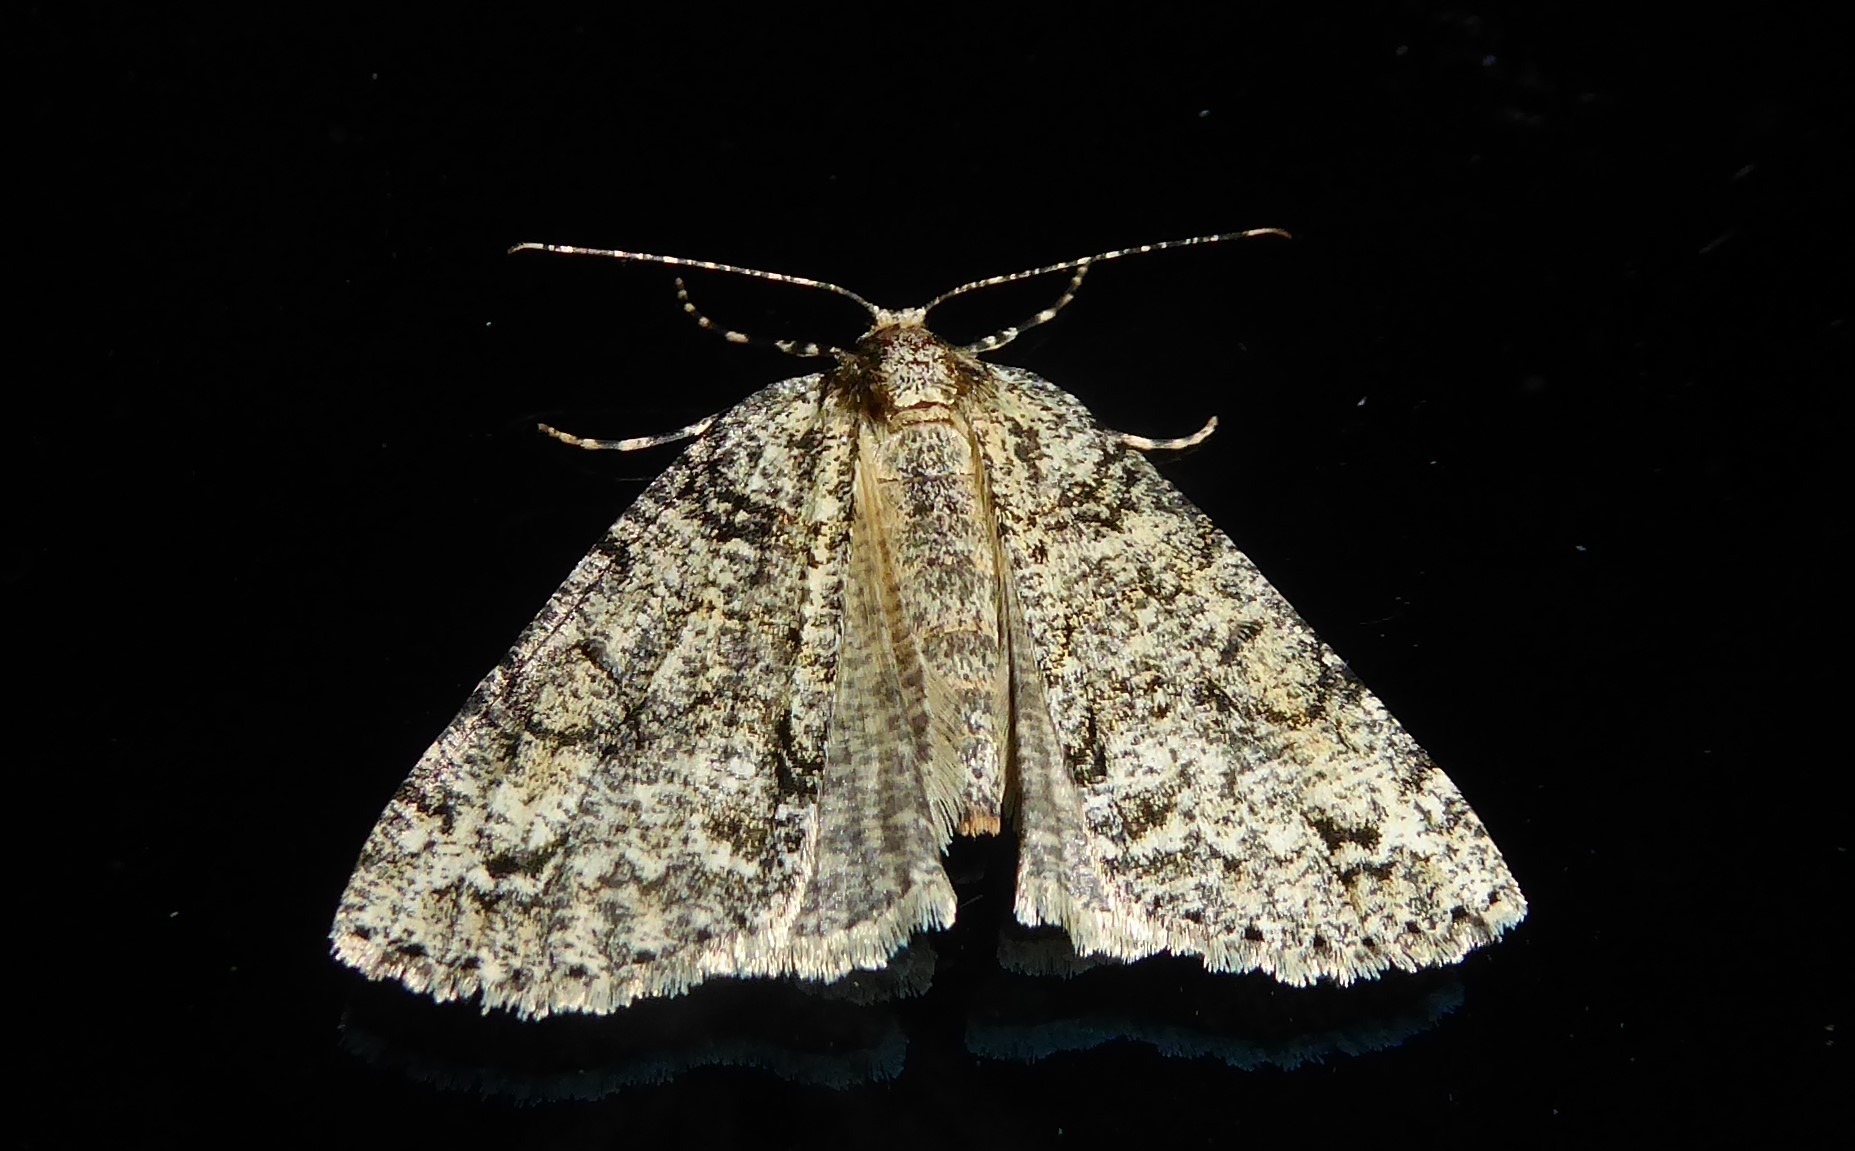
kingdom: Animalia
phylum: Arthropoda
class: Insecta
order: Lepidoptera
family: Geometridae
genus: Pseudocoremia
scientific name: Pseudocoremia suavis
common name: Common forest looper
